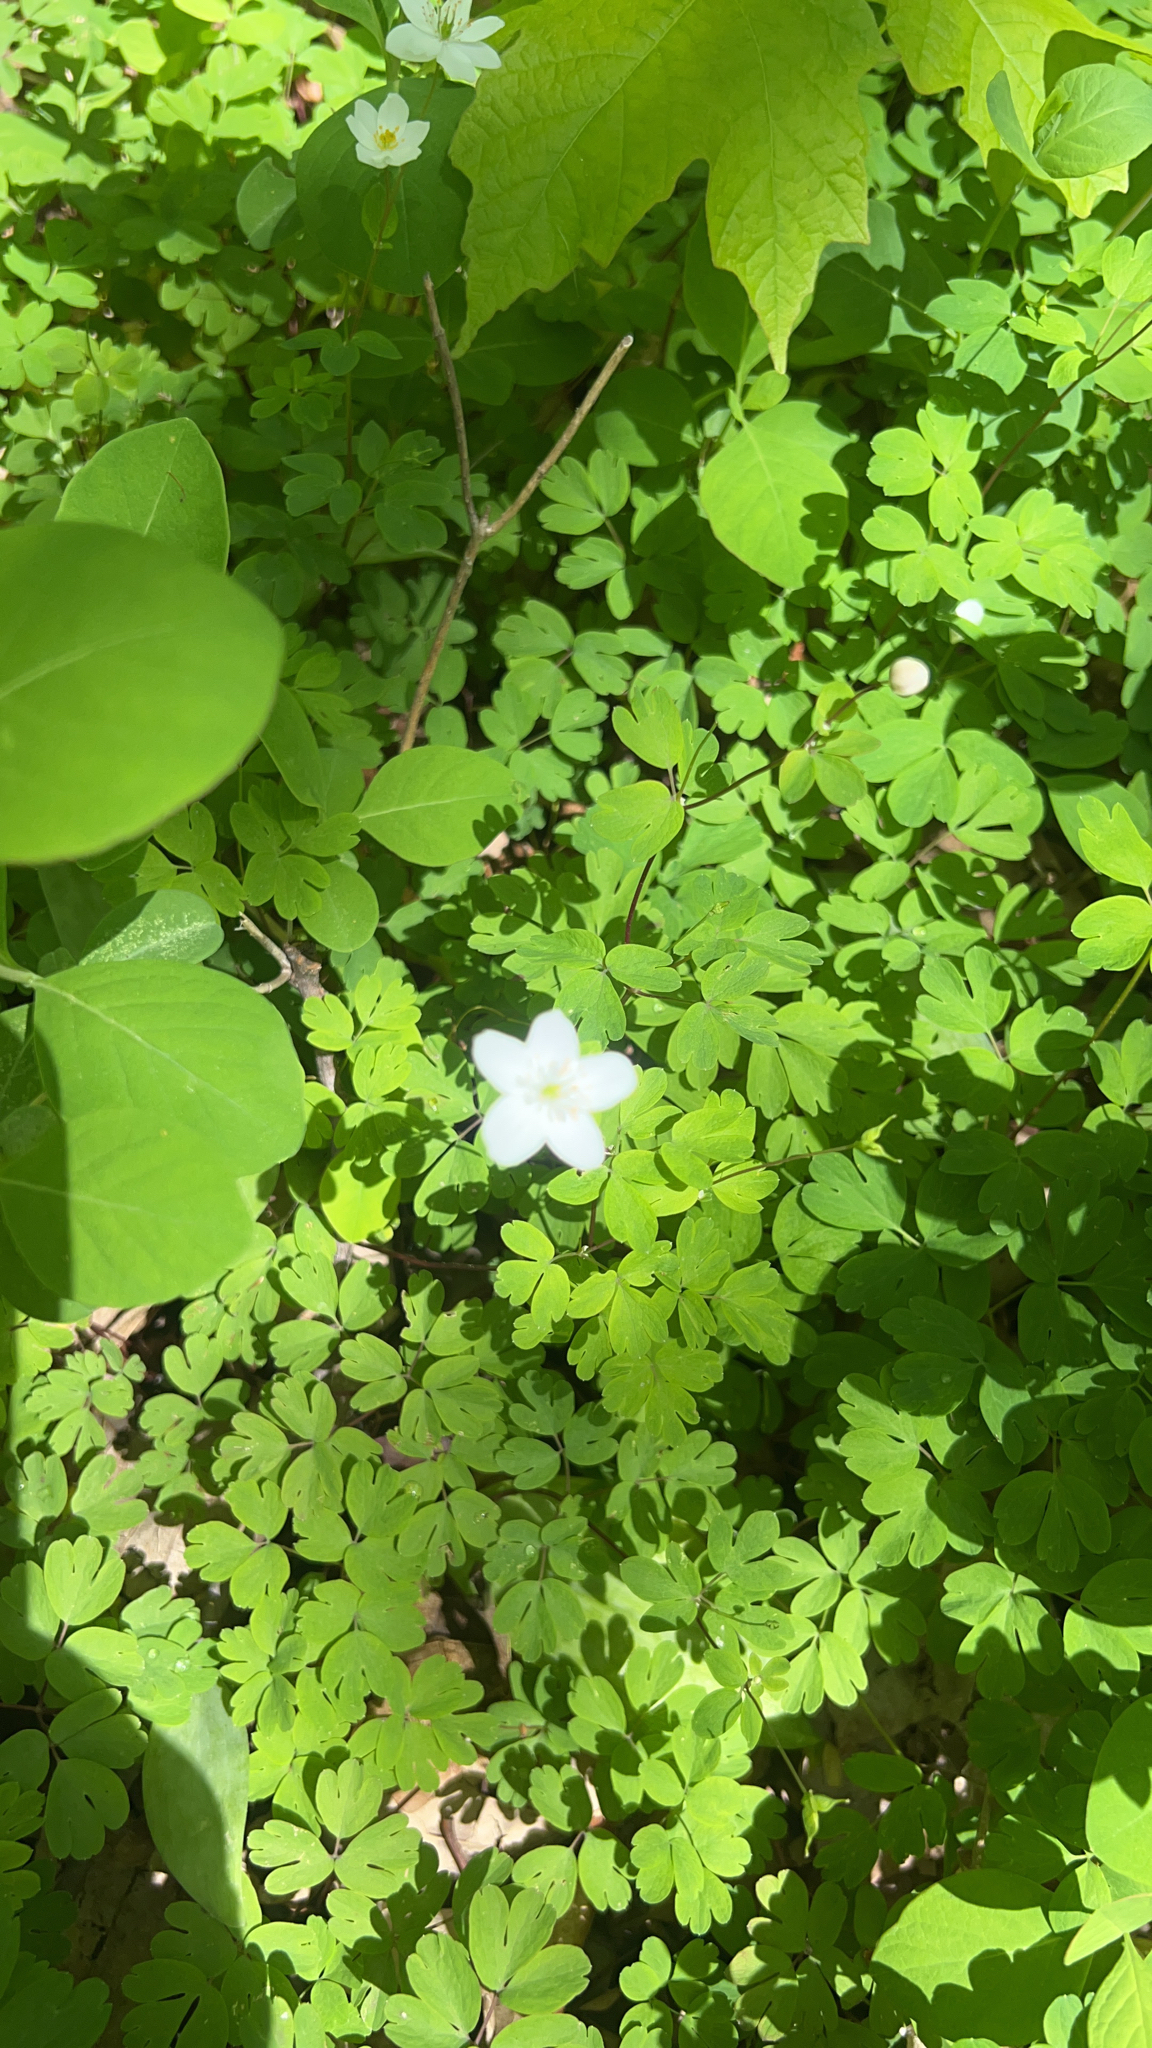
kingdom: Plantae
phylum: Tracheophyta
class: Magnoliopsida
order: Ranunculales
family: Ranunculaceae
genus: Enemion
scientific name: Enemion biternatum
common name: Eastern false rue-anemone
